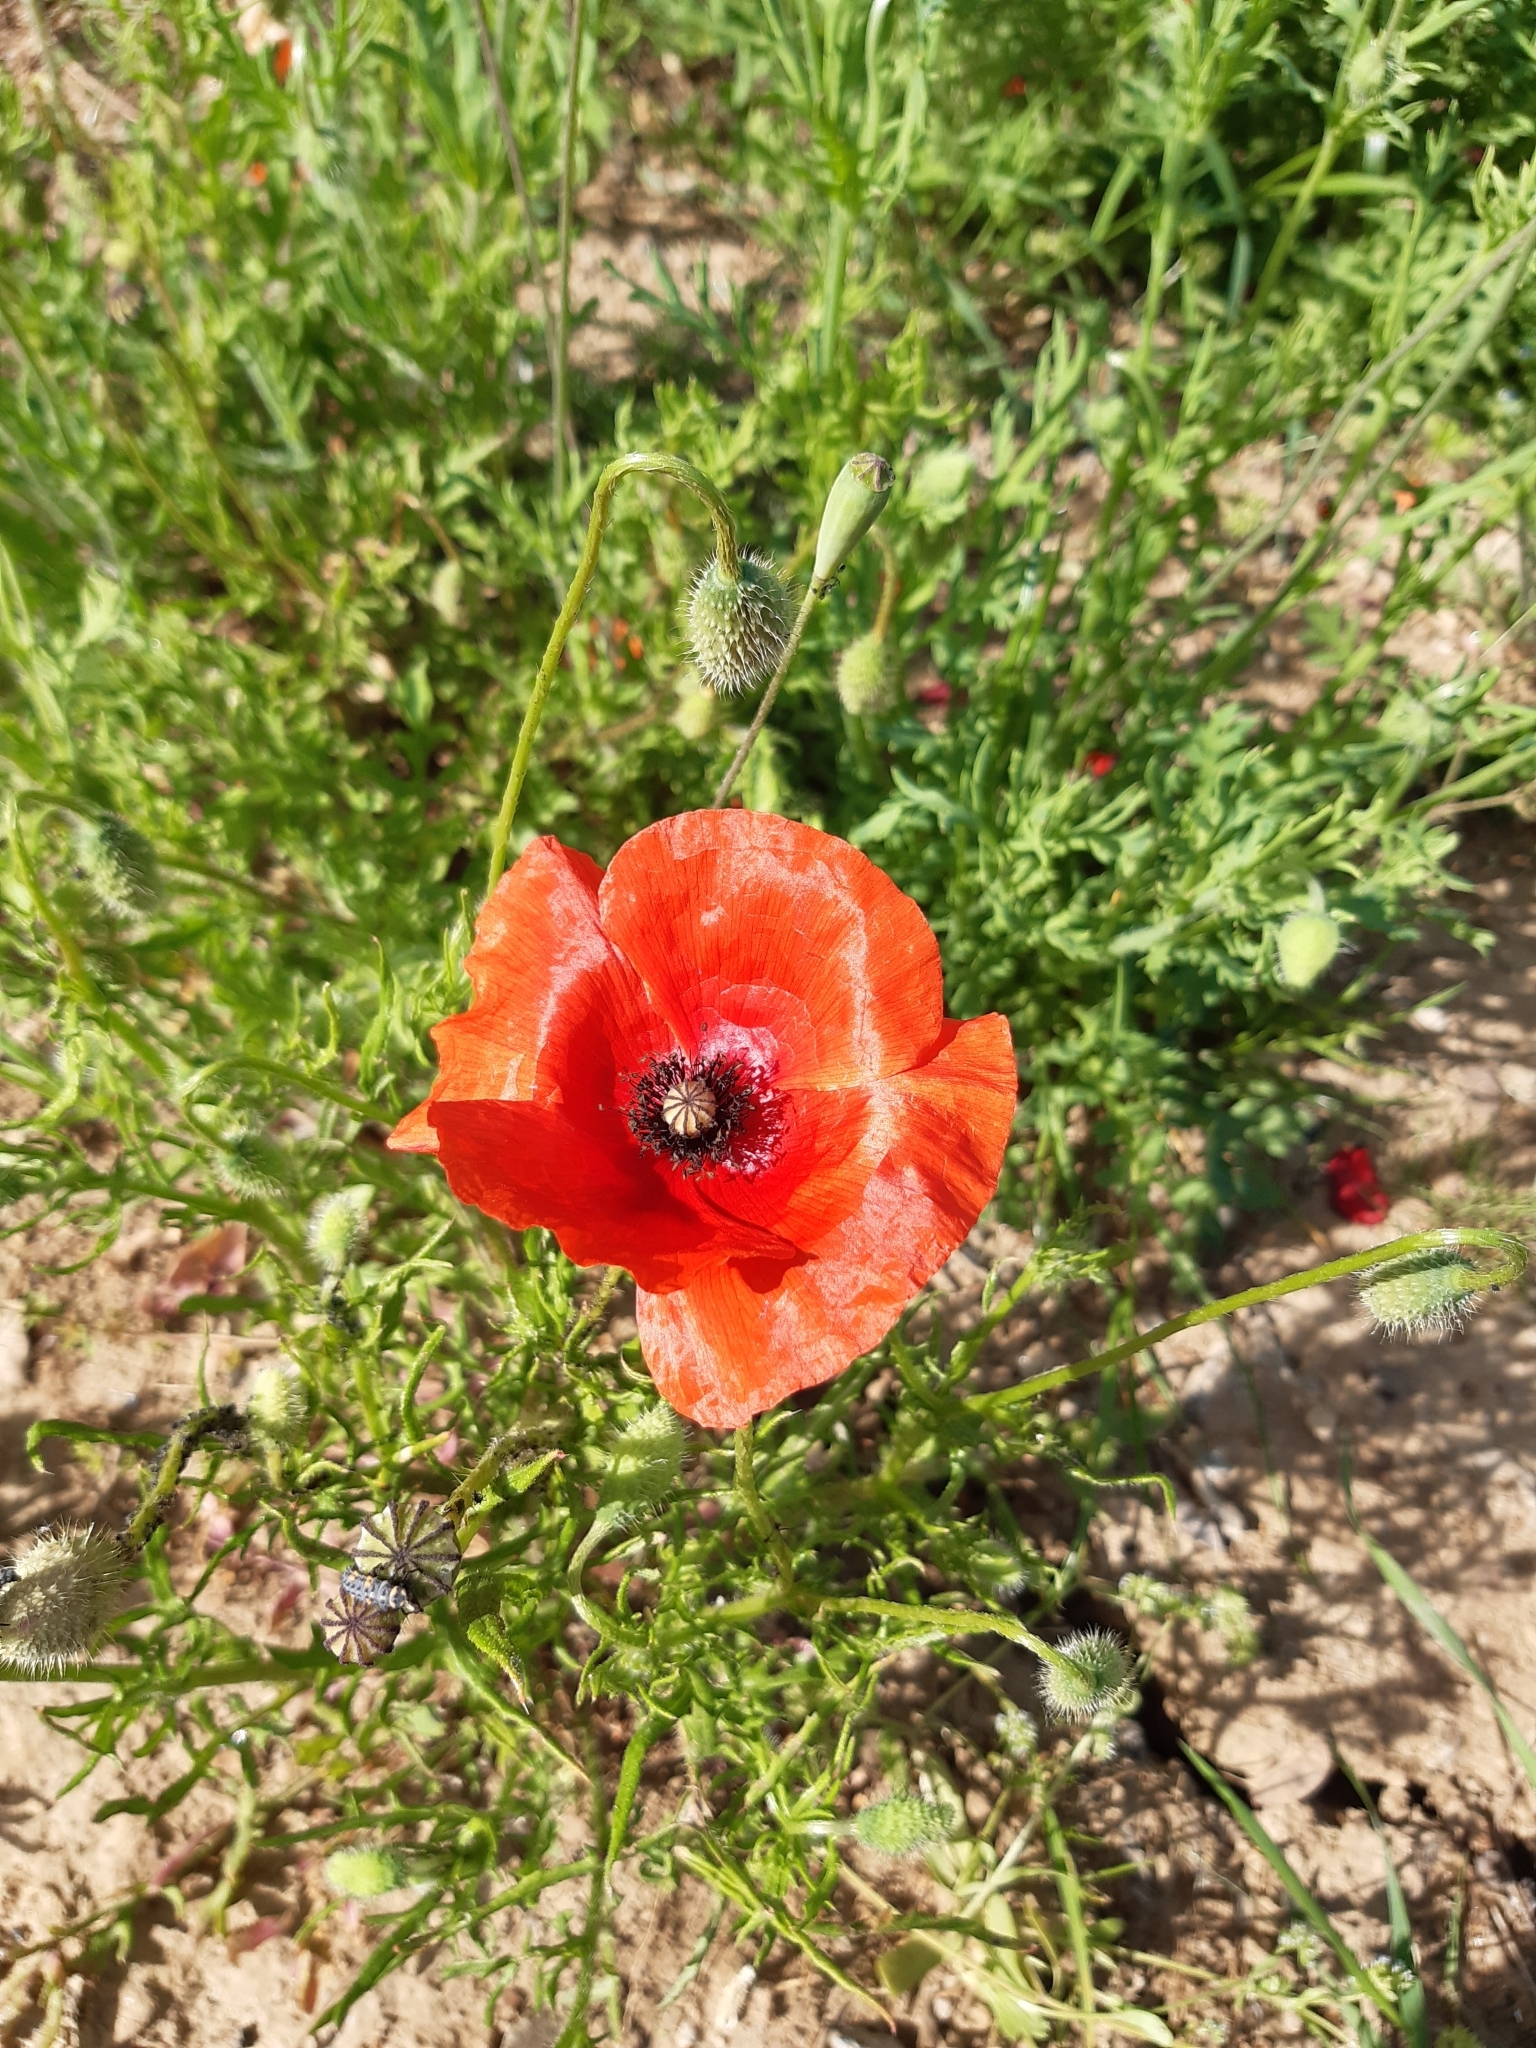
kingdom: Plantae
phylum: Tracheophyta
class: Magnoliopsida
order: Ranunculales
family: Papaveraceae
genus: Papaver
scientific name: Papaver rhoeas
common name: Corn poppy
